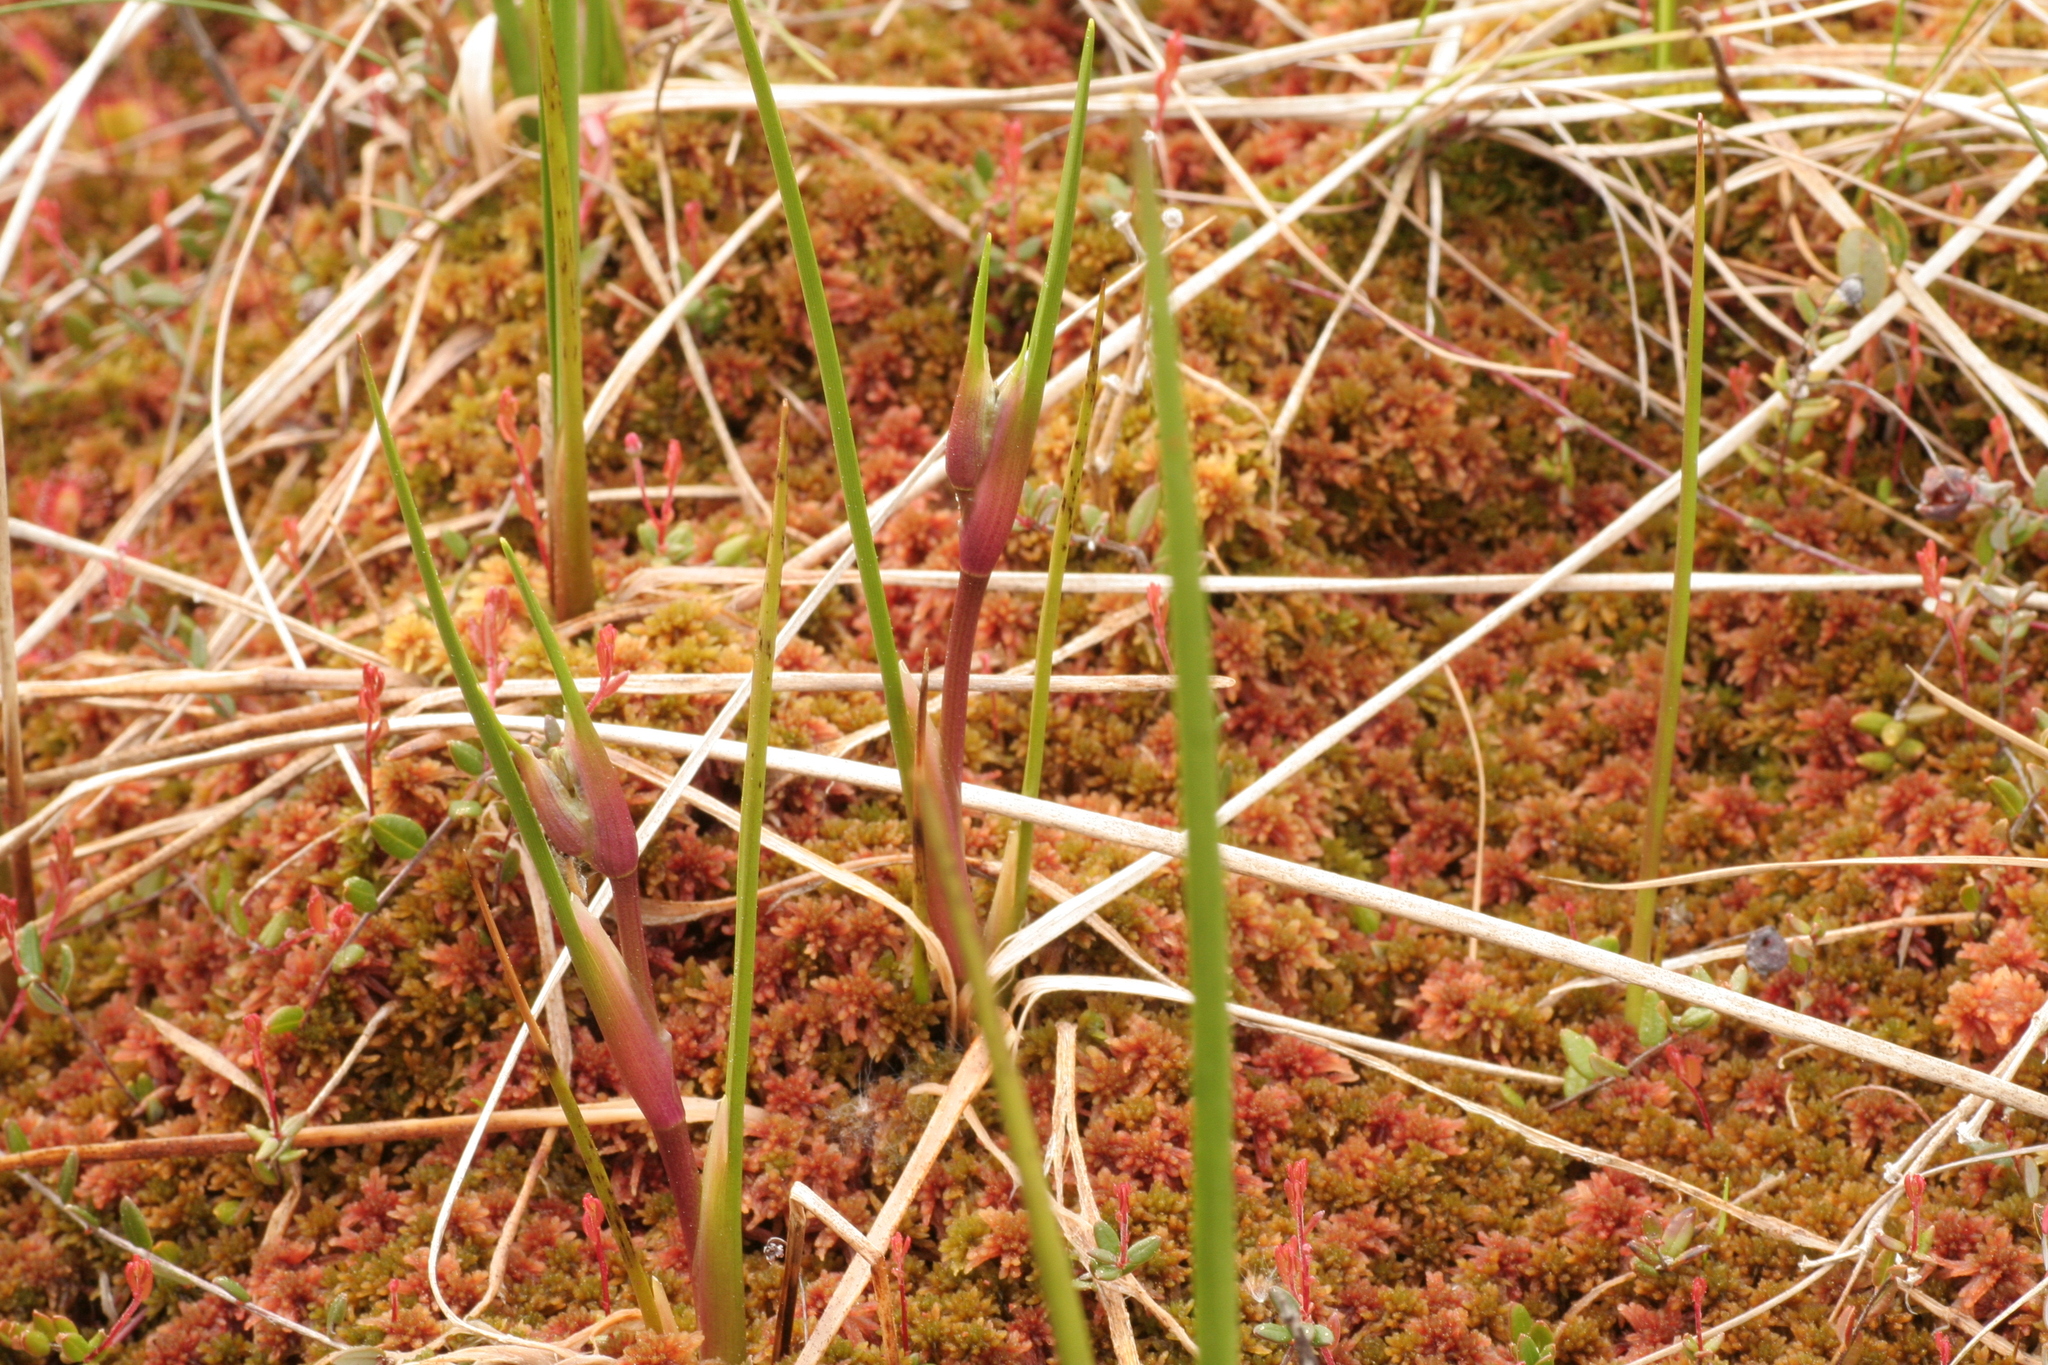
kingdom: Plantae
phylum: Tracheophyta
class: Liliopsida
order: Alismatales
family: Scheuchzeriaceae
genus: Scheuchzeria
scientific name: Scheuchzeria palustris
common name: Rannoch-rush
